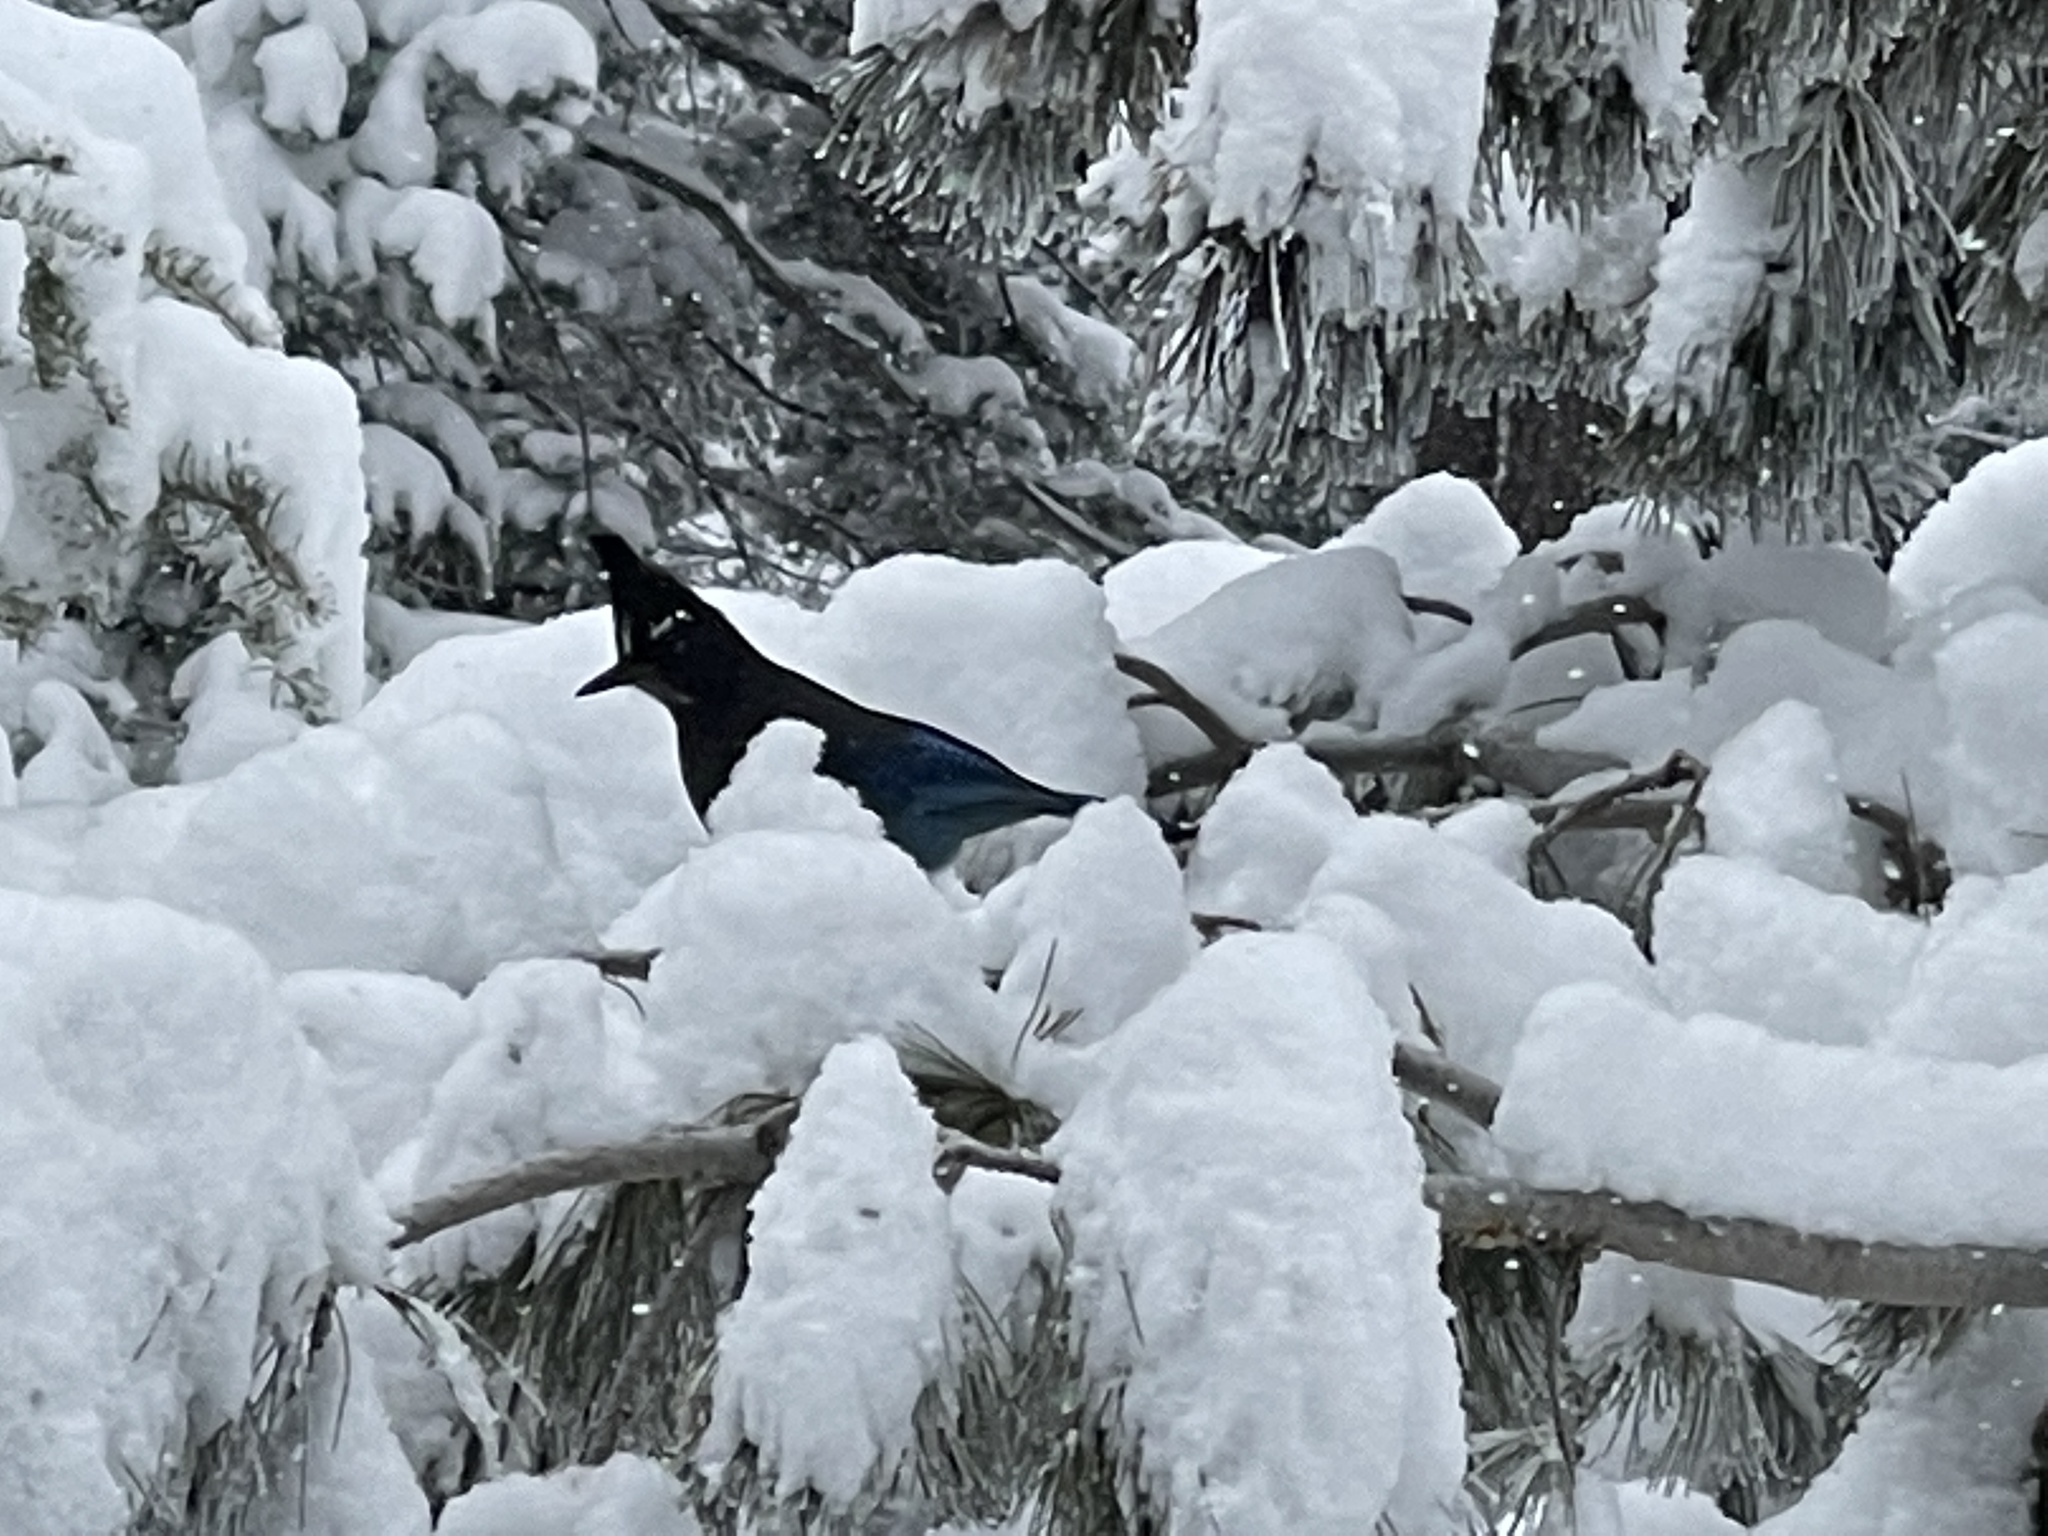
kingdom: Animalia
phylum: Chordata
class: Aves
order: Passeriformes
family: Corvidae
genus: Cyanocitta
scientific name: Cyanocitta stelleri
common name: Steller's jay
